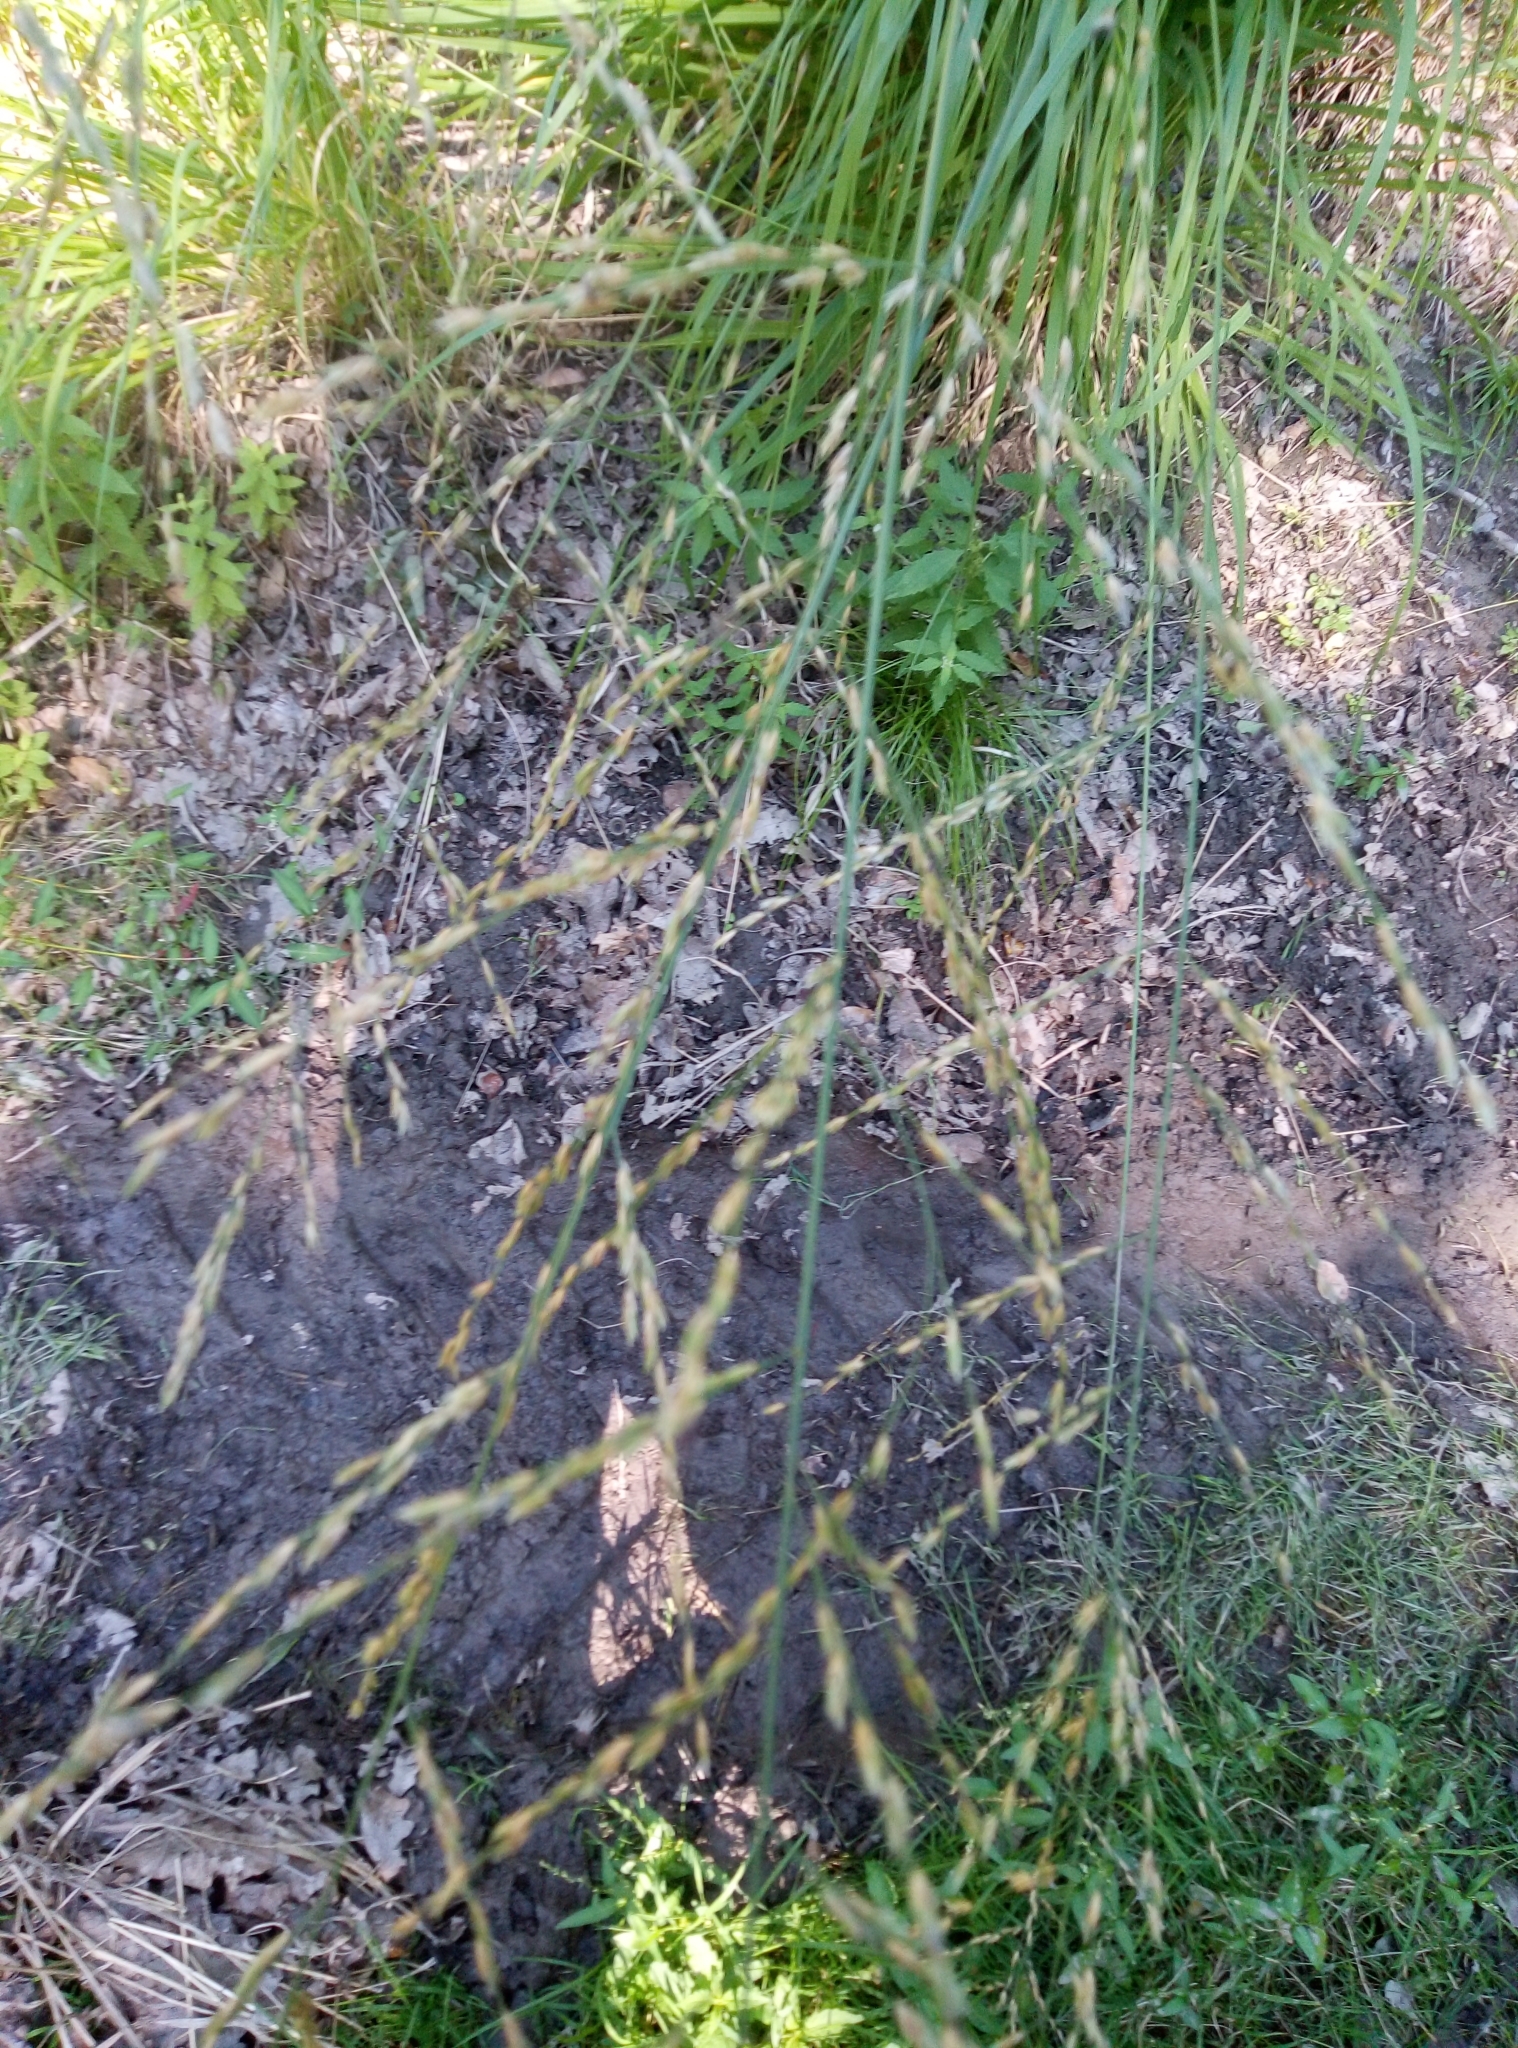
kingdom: Plantae
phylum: Tracheophyta
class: Liliopsida
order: Poales
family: Poaceae
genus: Molinia
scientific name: Molinia caerulea
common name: Purple moor-grass
